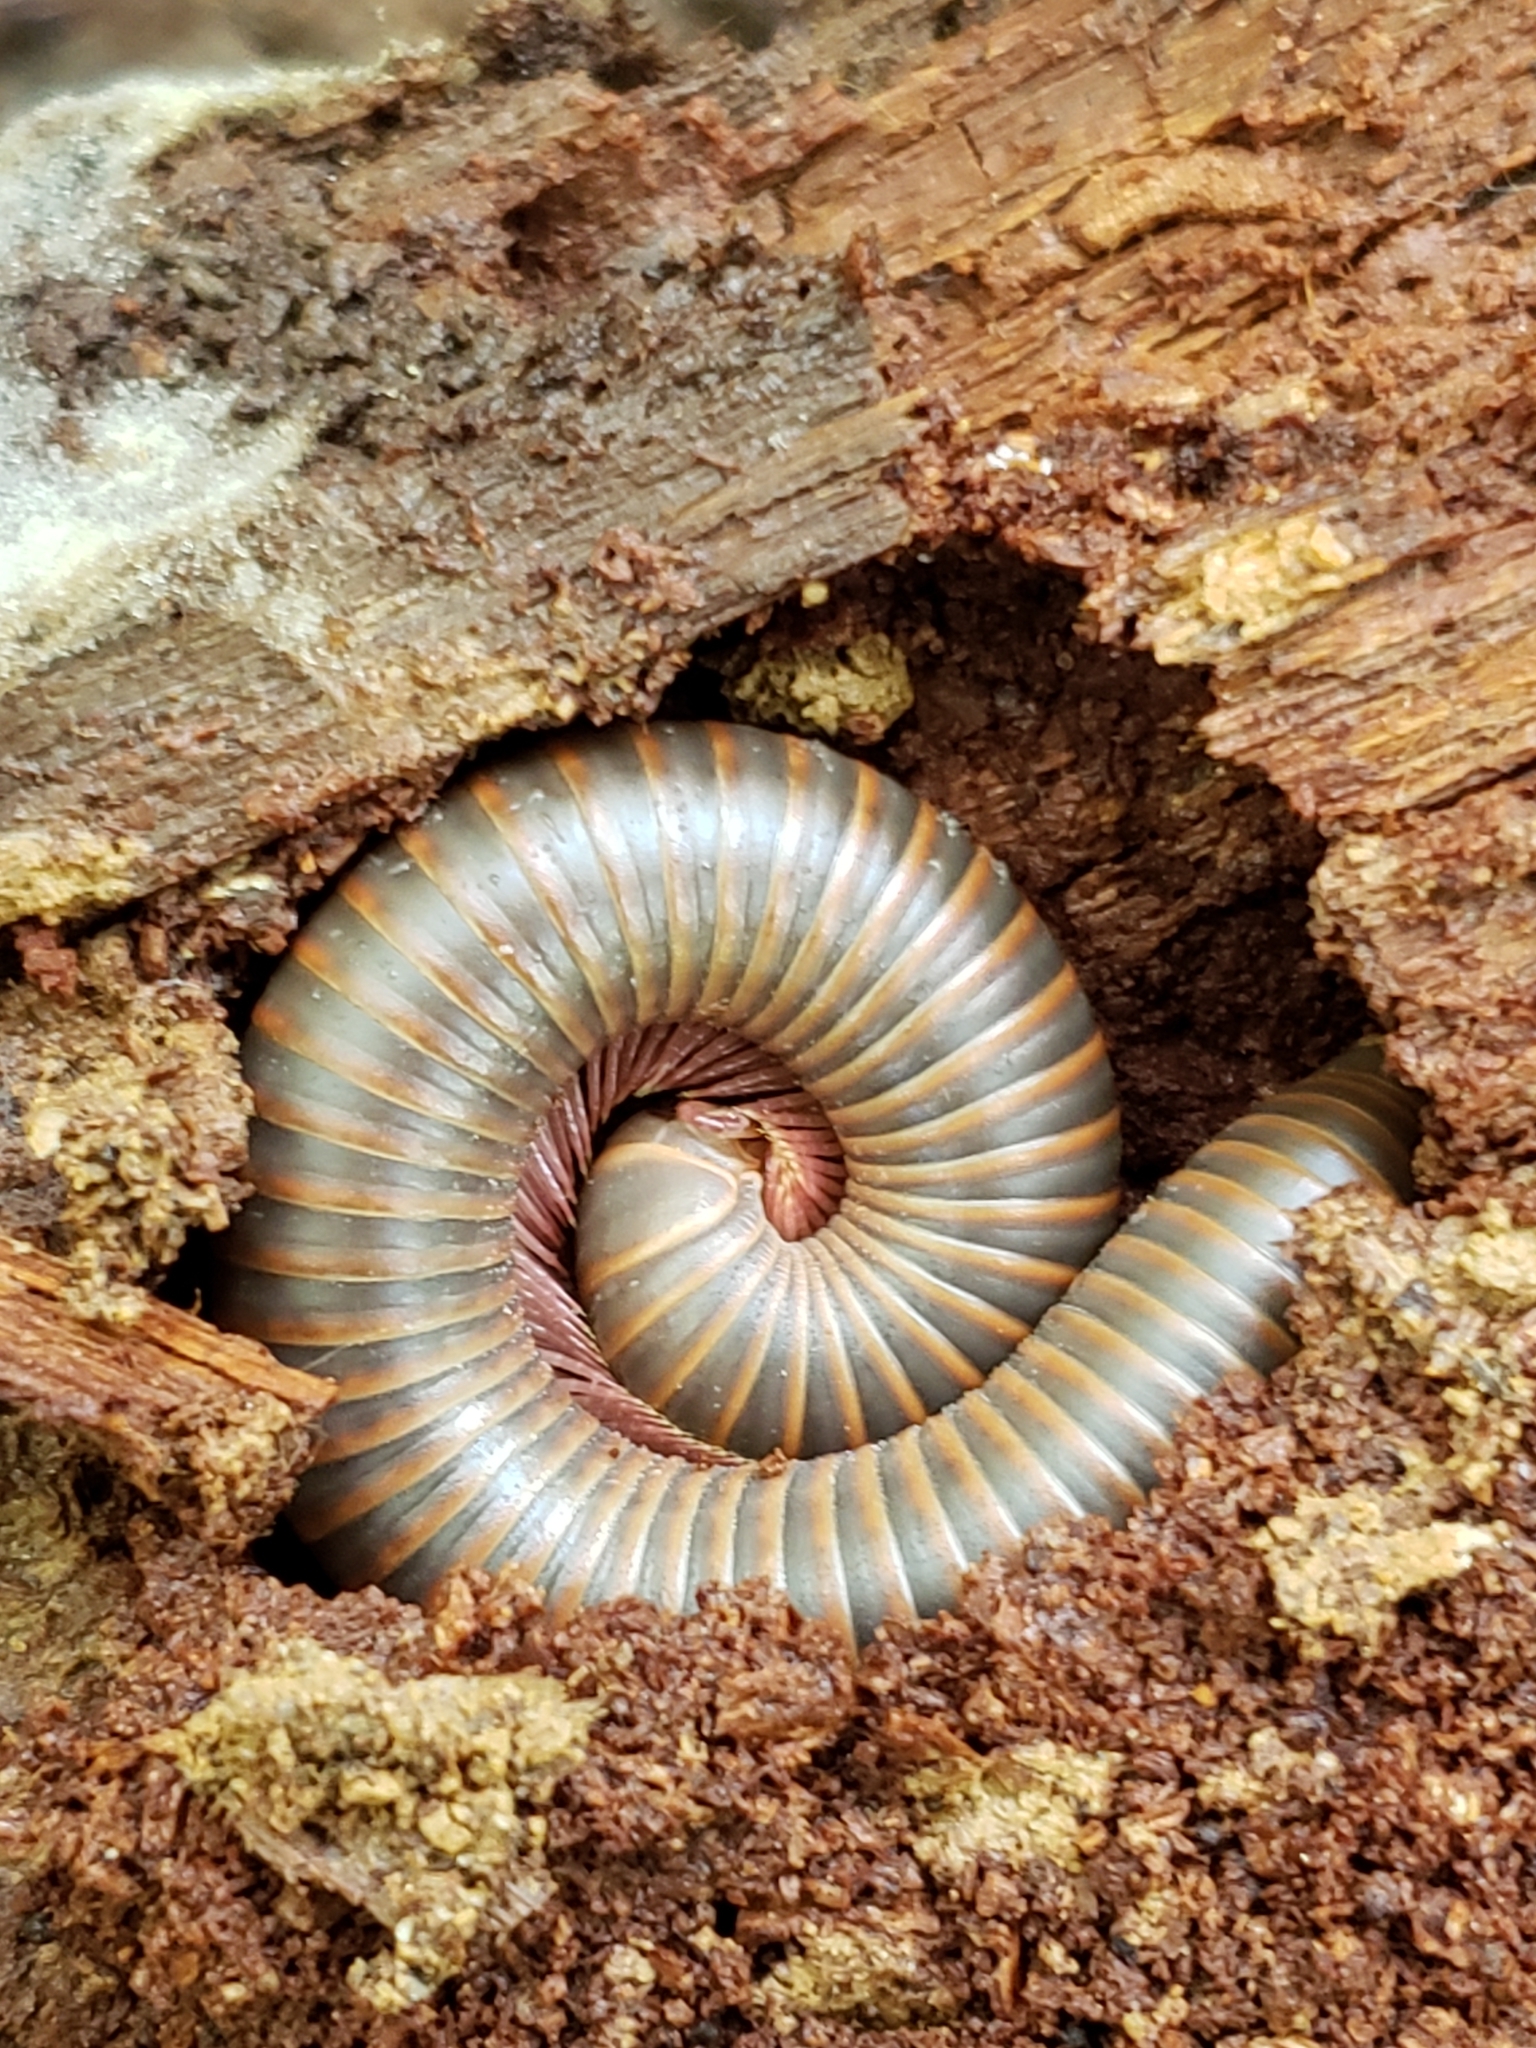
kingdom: Animalia
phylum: Arthropoda
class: Diplopoda
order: Spirobolida
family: Spirobolidae
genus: Narceus
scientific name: Narceus
